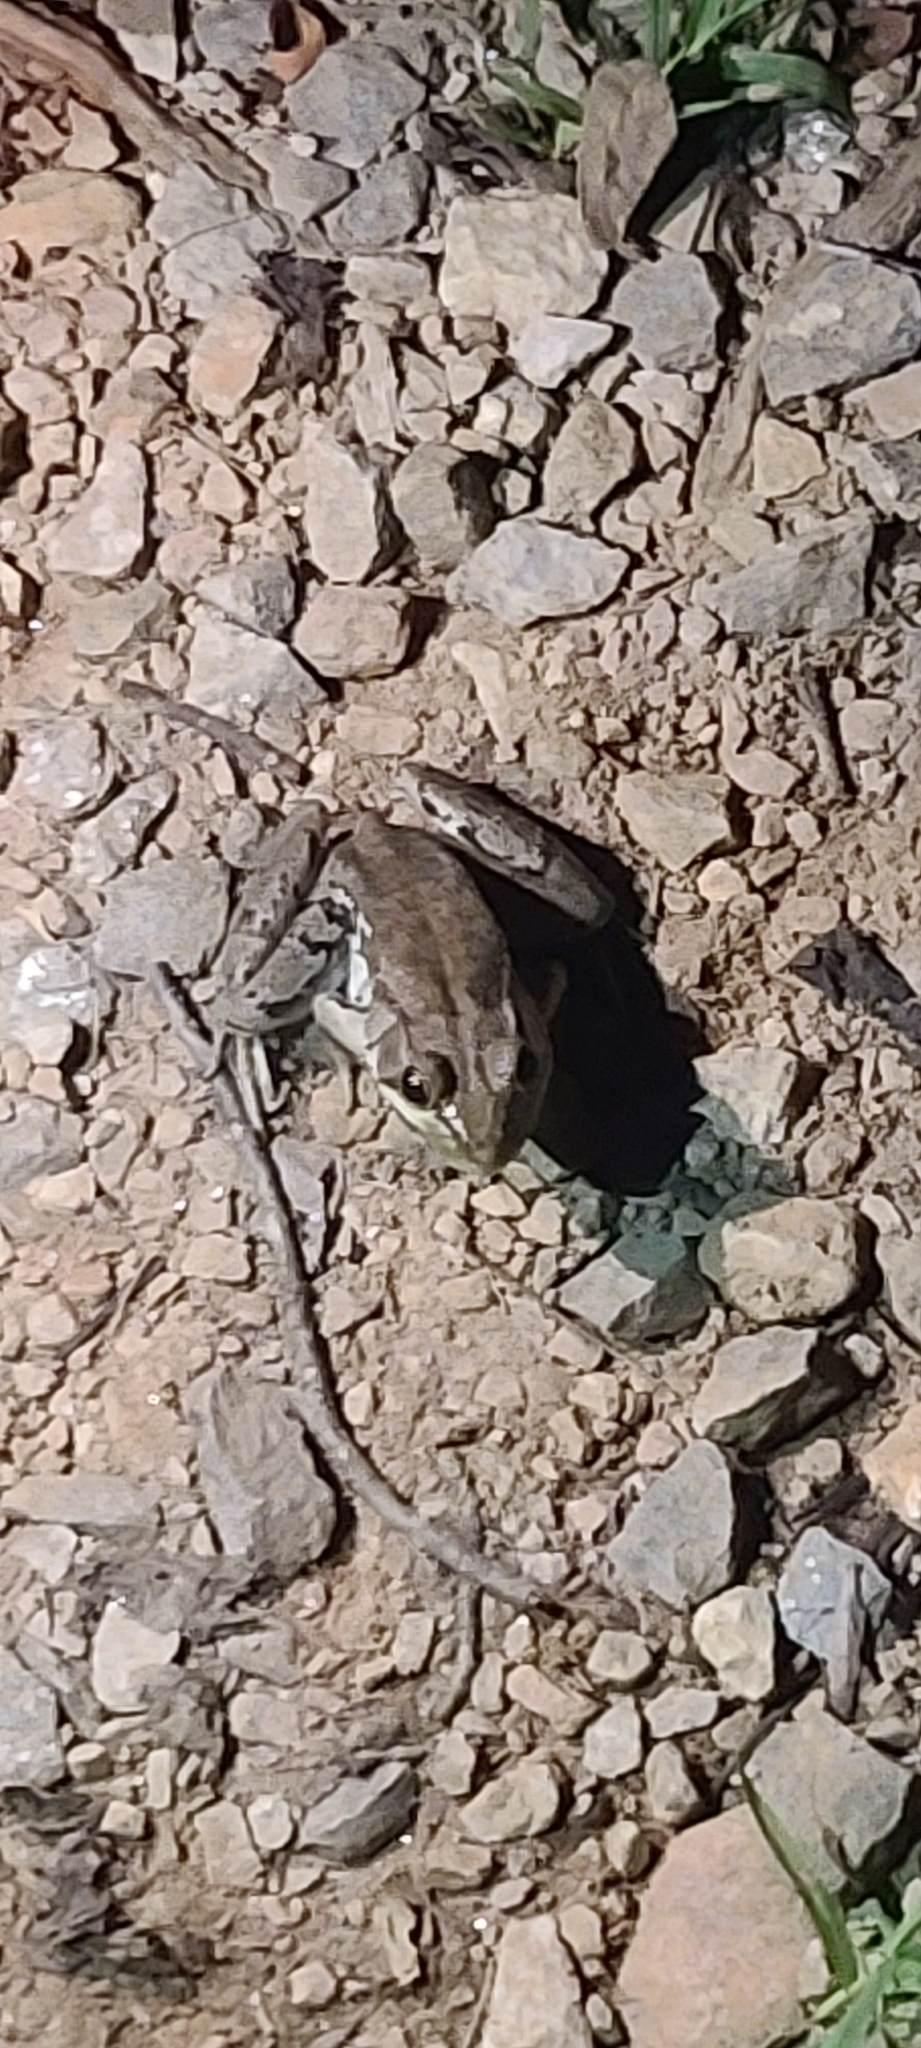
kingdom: Animalia
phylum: Chordata
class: Amphibia
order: Anura
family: Ranidae
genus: Lithobates
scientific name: Lithobates clamitans
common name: Green frog
